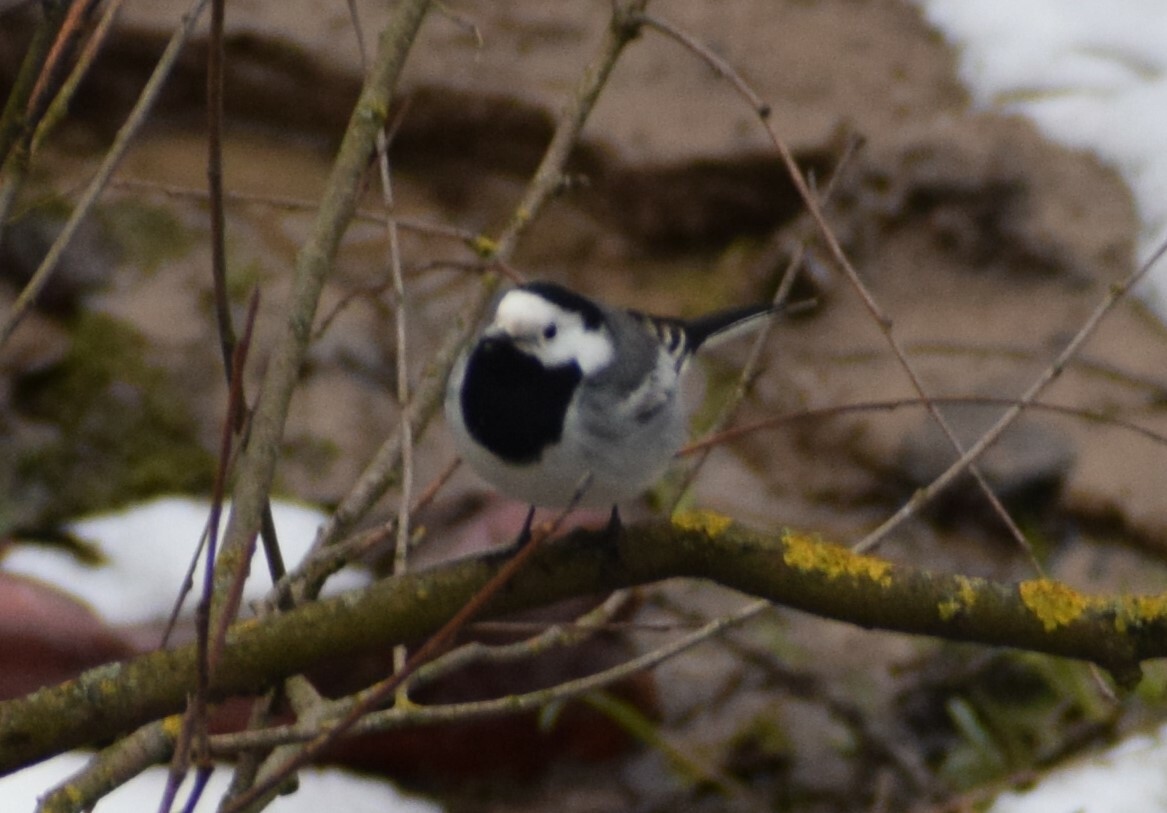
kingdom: Animalia
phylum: Chordata
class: Aves
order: Passeriformes
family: Motacillidae
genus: Motacilla
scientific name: Motacilla alba
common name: White wagtail
